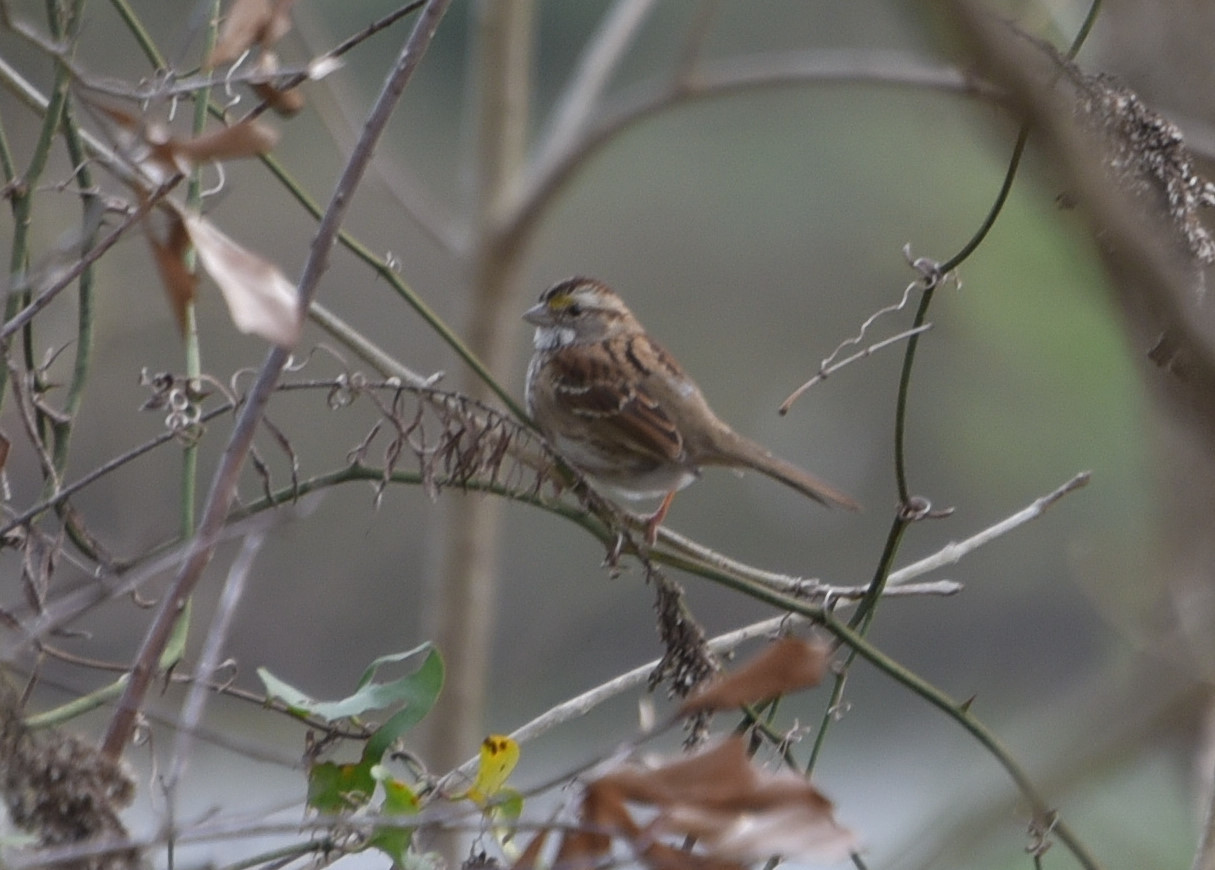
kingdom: Animalia
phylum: Chordata
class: Aves
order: Passeriformes
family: Passerellidae
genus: Zonotrichia
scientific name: Zonotrichia albicollis
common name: White-throated sparrow
